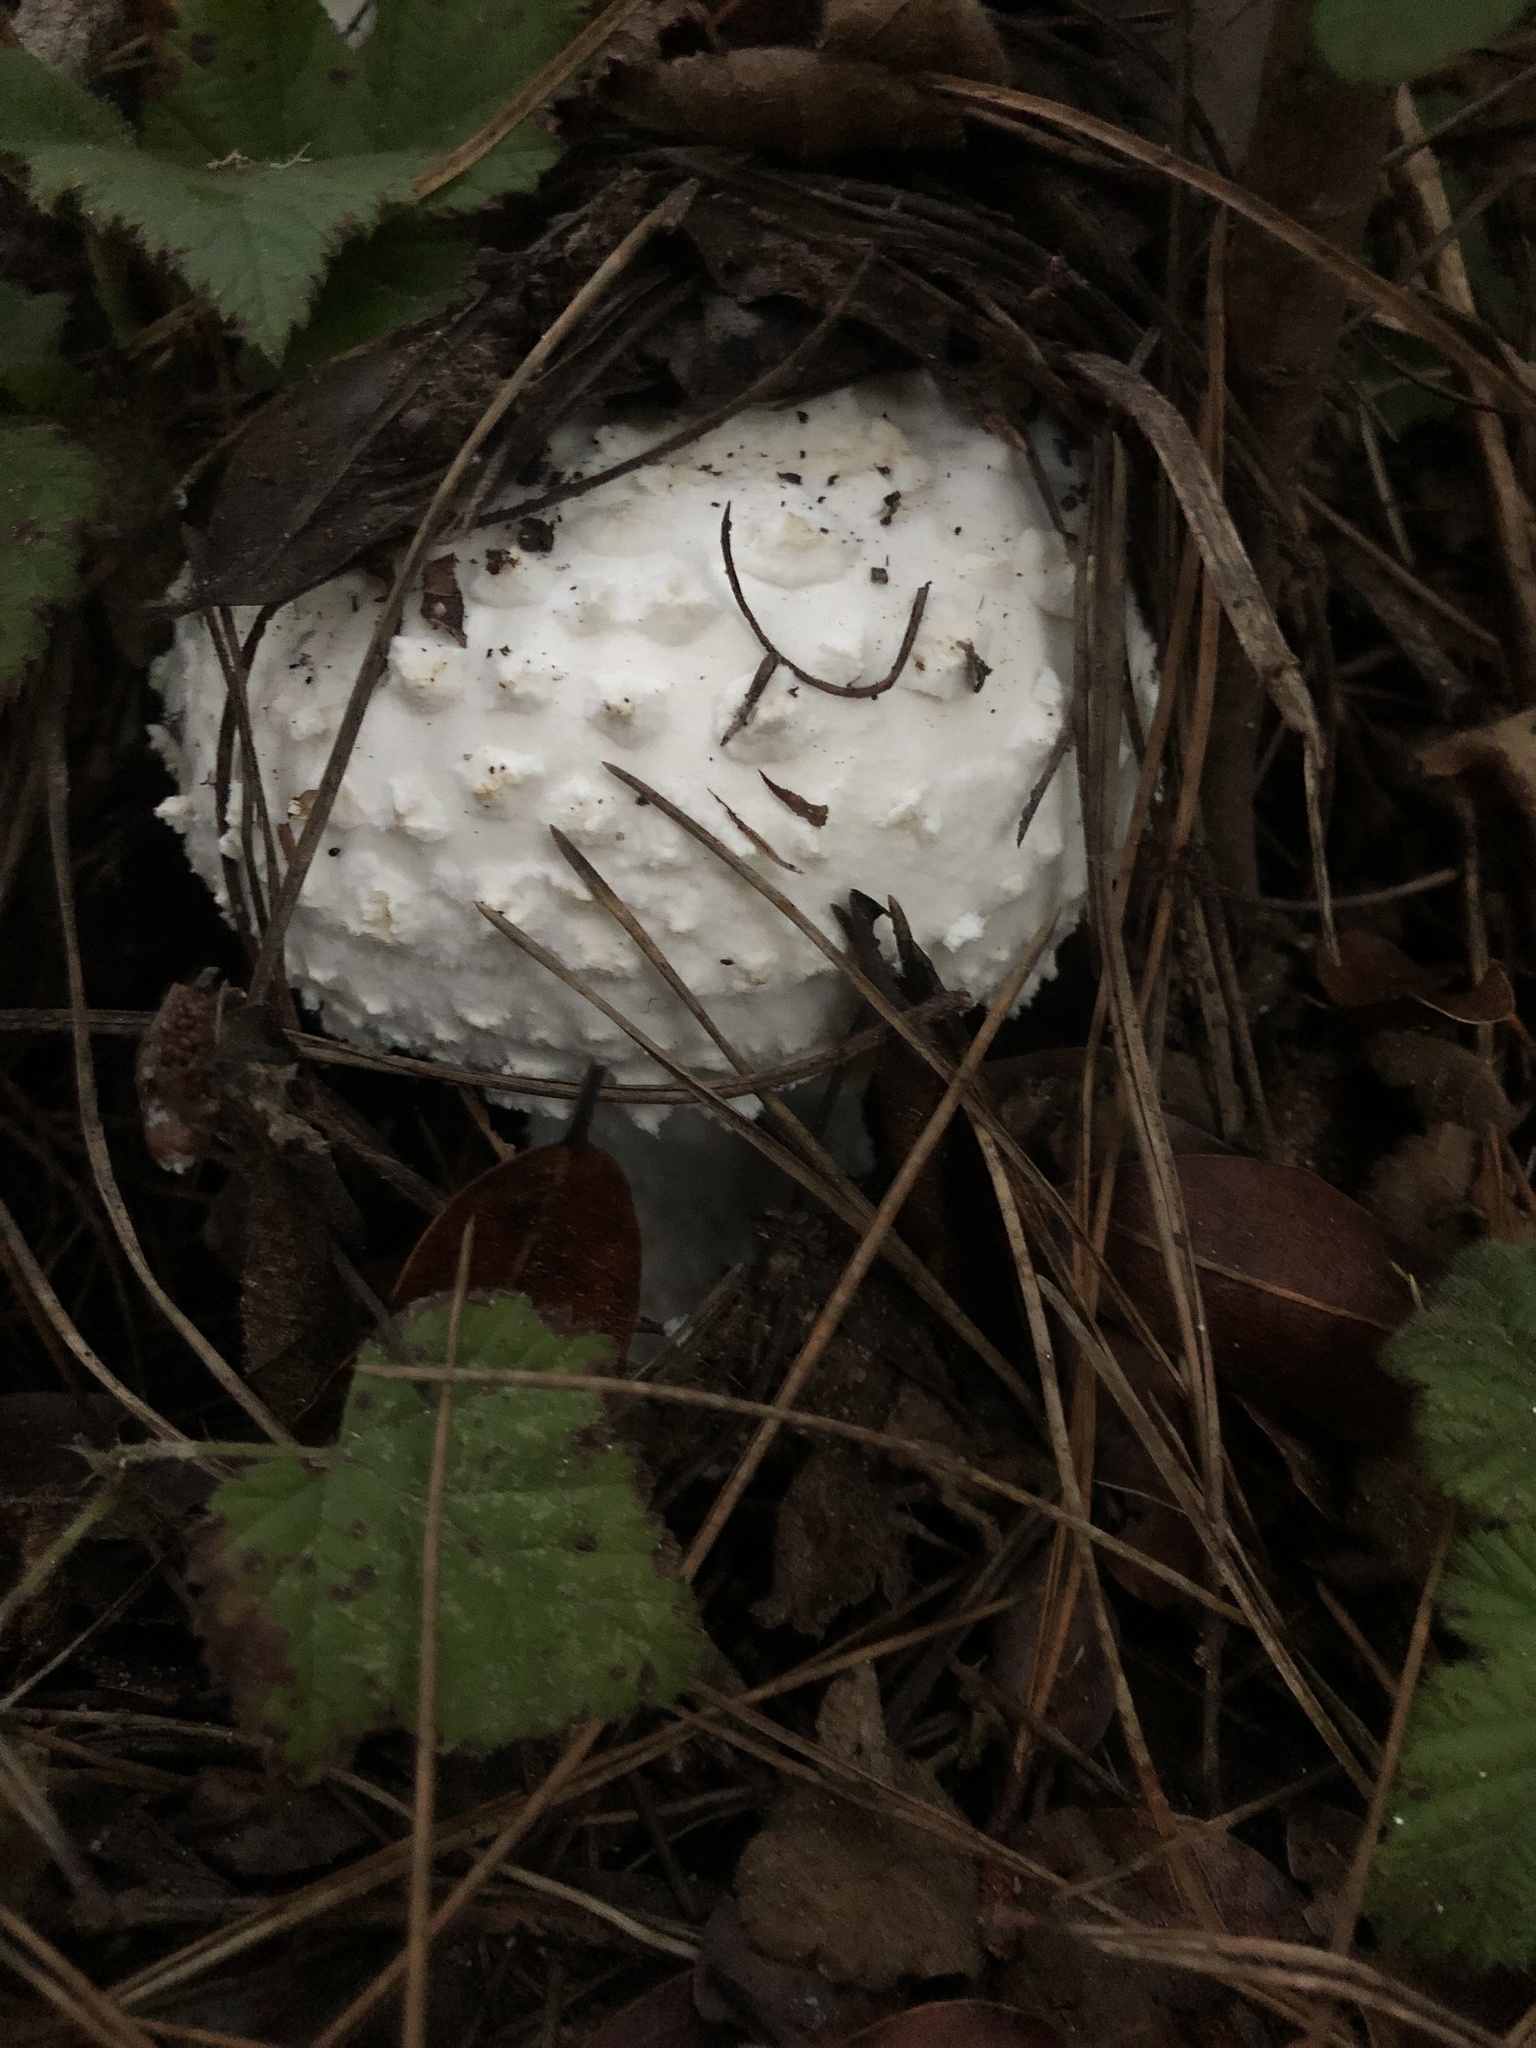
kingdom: Fungi
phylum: Basidiomycota
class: Agaricomycetes
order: Agaricales
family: Amanitaceae
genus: Amanita
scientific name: Amanita magniverrucata
